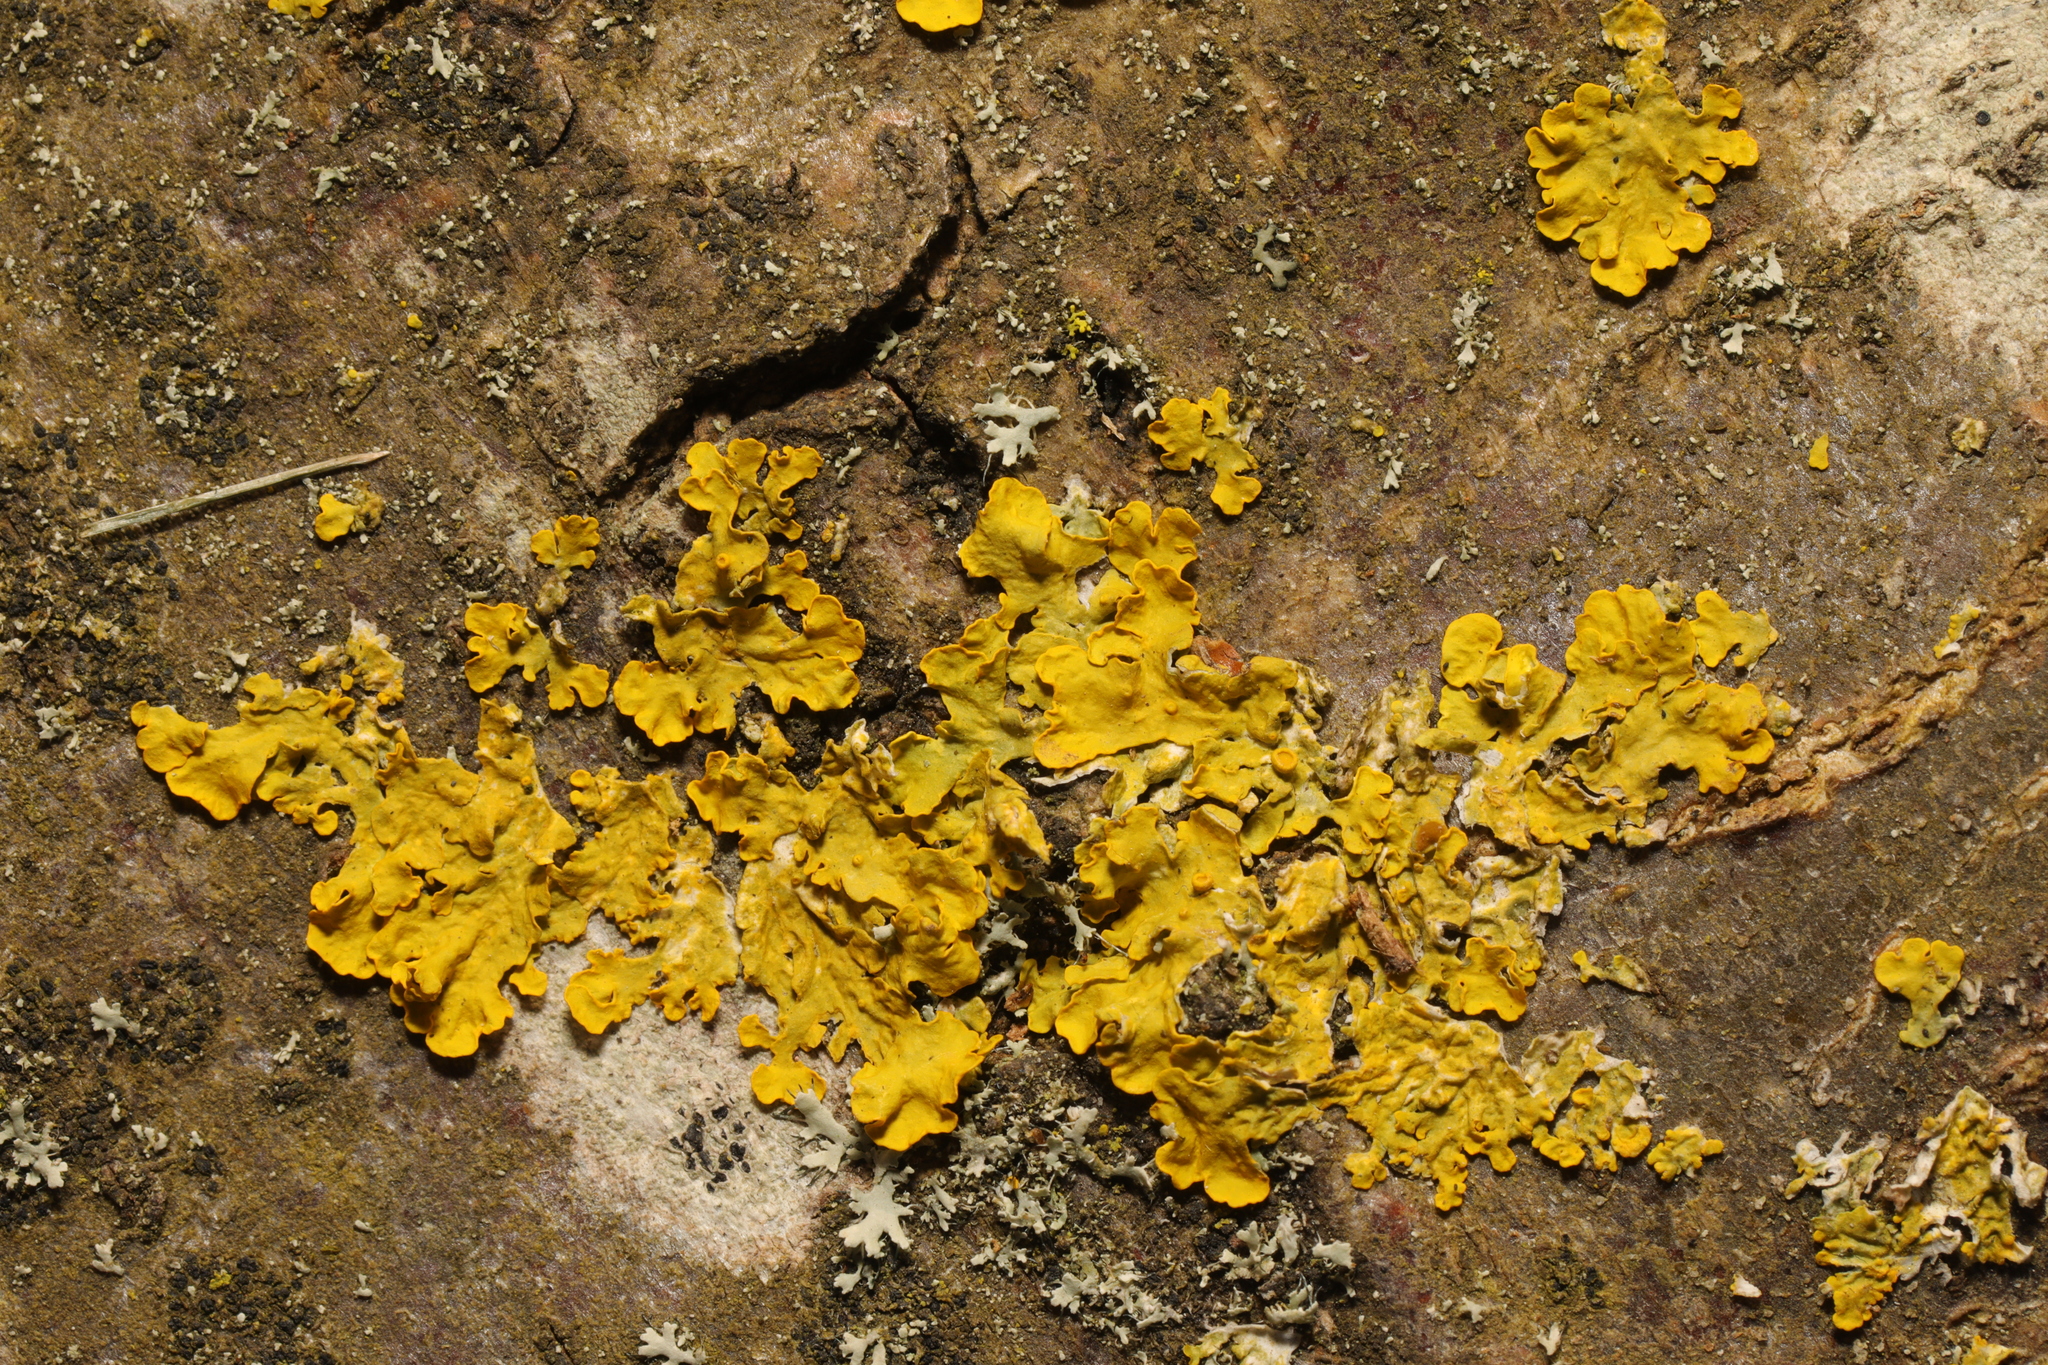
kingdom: Fungi
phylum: Ascomycota
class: Lecanoromycetes
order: Teloschistales
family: Teloschistaceae
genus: Xanthoria
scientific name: Xanthoria parietina
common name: Common orange lichen
